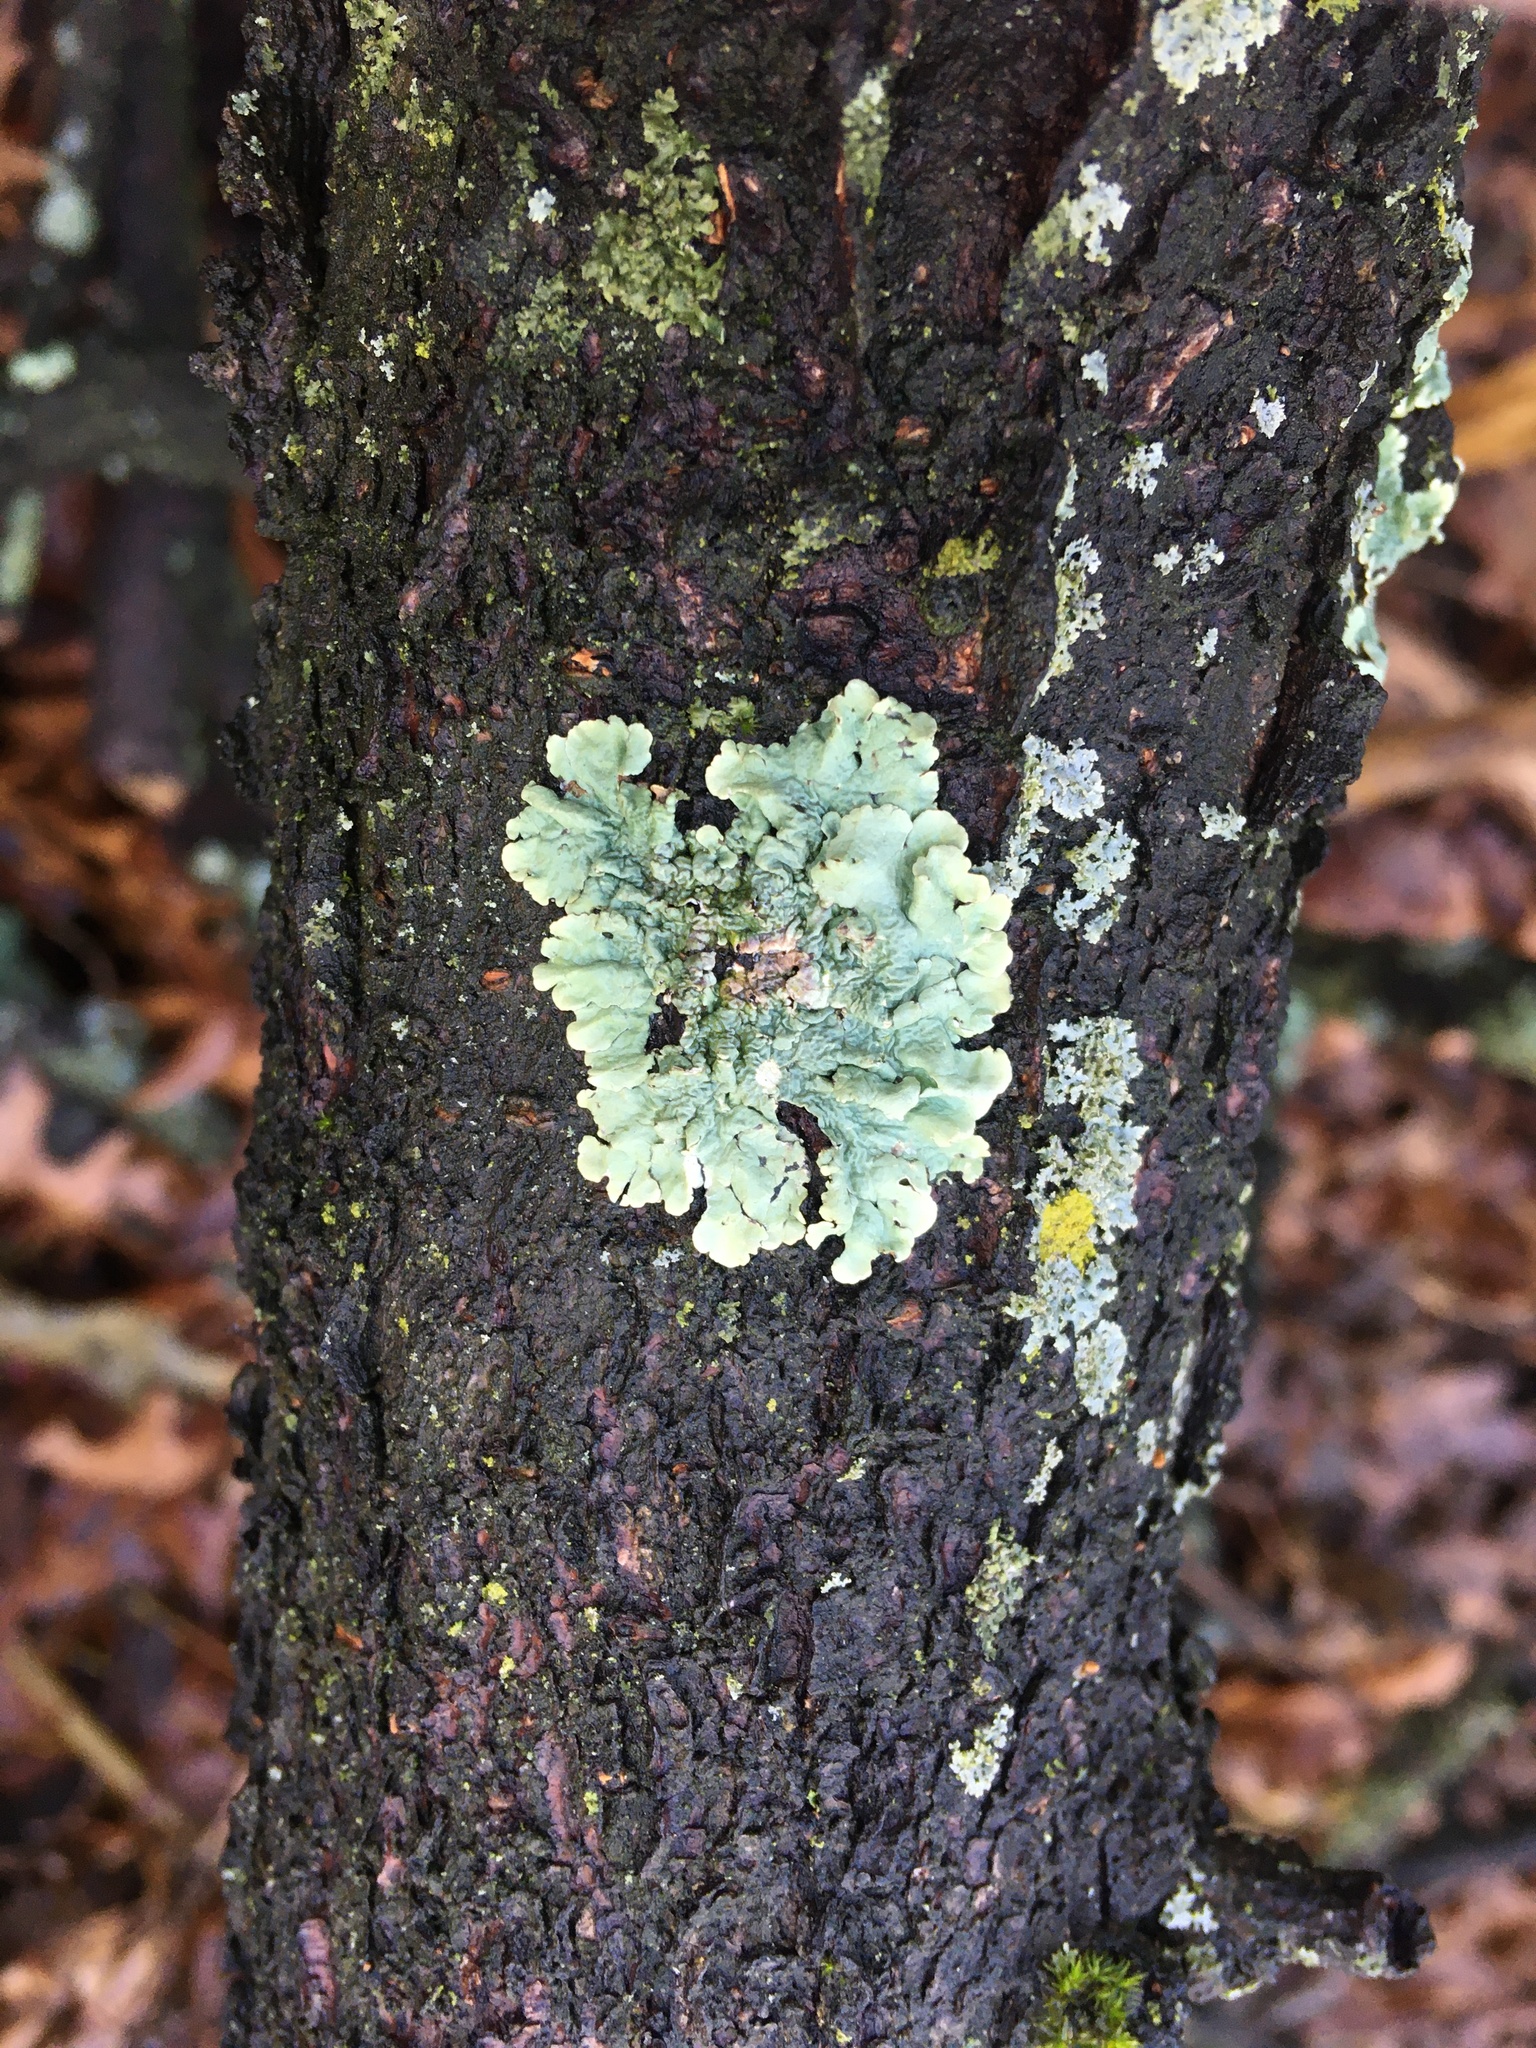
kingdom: Fungi
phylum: Ascomycota
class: Lecanoromycetes
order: Lecanorales
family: Parmeliaceae
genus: Flavoparmelia
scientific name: Flavoparmelia caperata
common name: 40-mile per hour lichen
